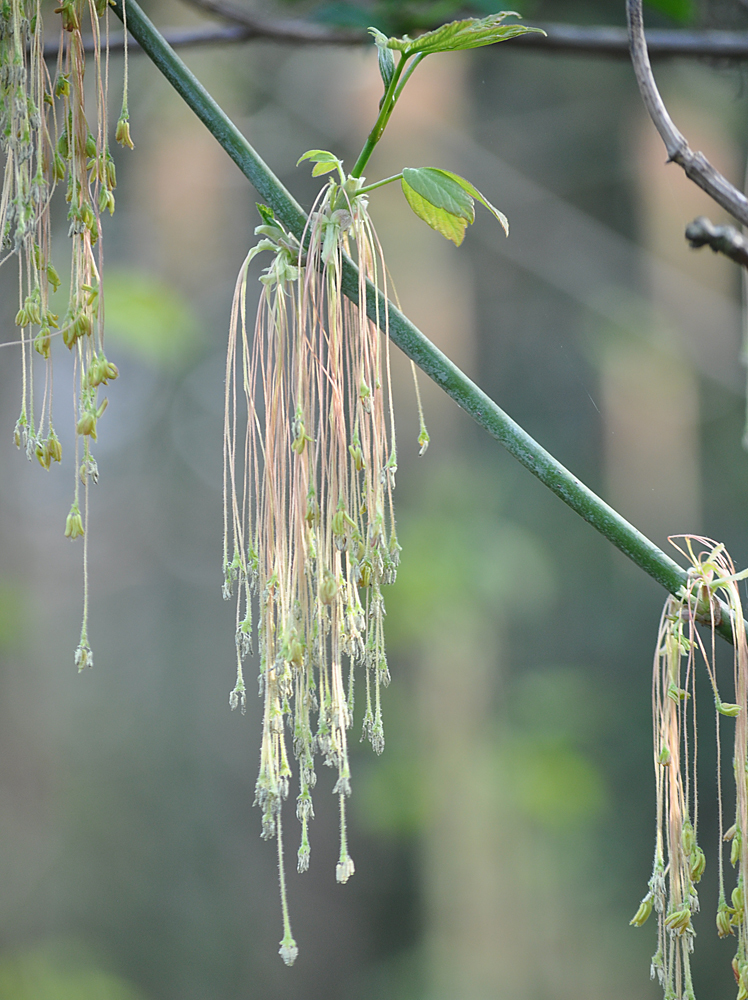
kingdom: Plantae
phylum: Tracheophyta
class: Magnoliopsida
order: Sapindales
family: Sapindaceae
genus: Acer
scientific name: Acer negundo
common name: Ashleaf maple
